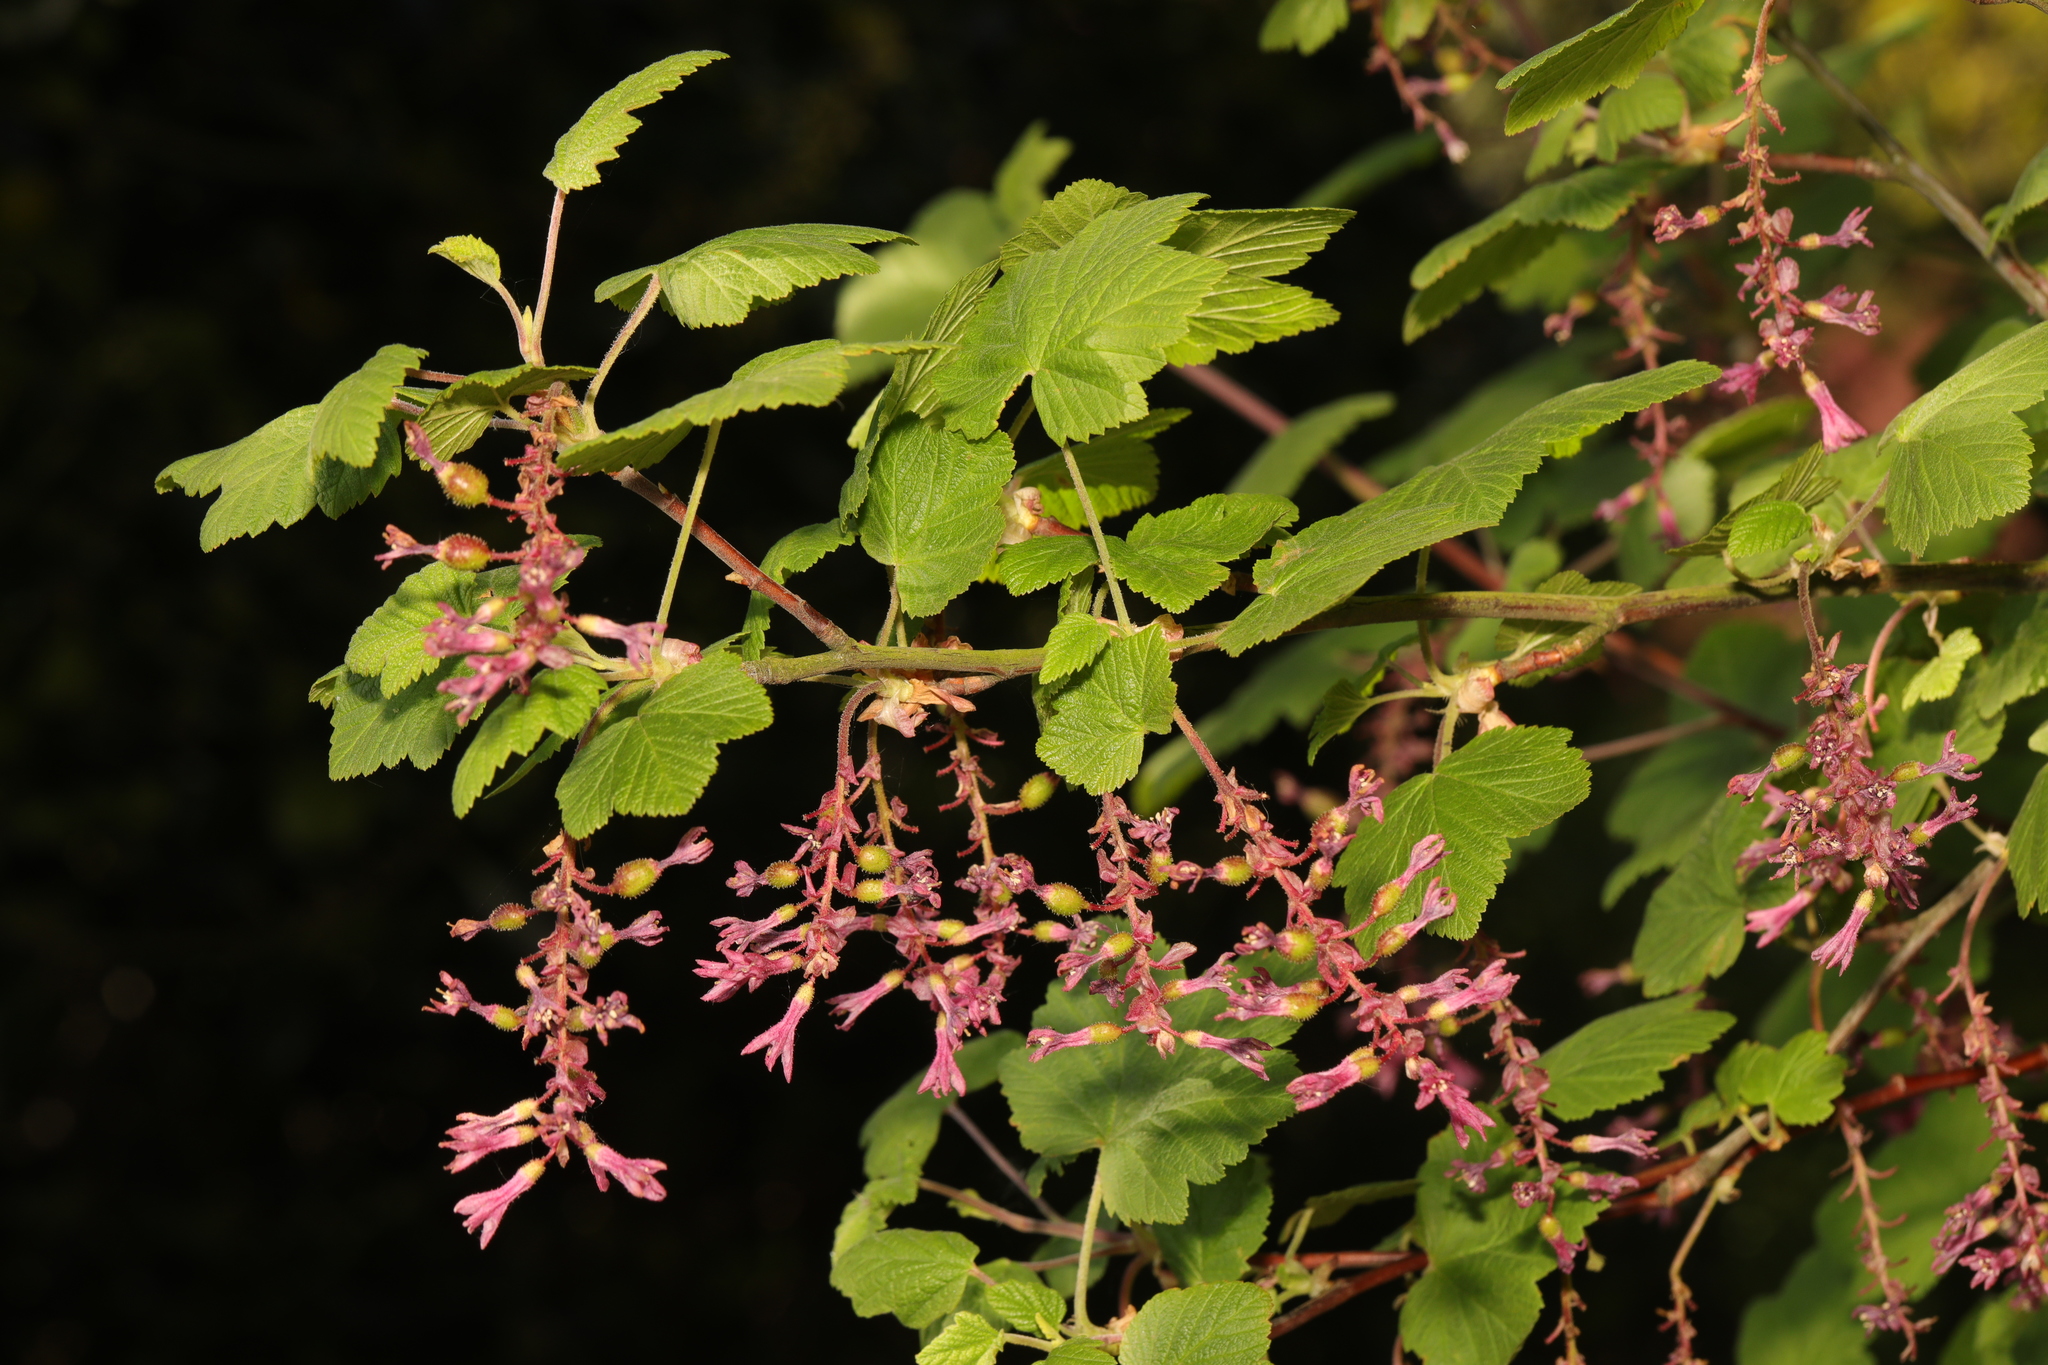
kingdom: Plantae
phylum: Tracheophyta
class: Magnoliopsida
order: Saxifragales
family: Grossulariaceae
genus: Ribes
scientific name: Ribes sanguineum
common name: Flowering currant
